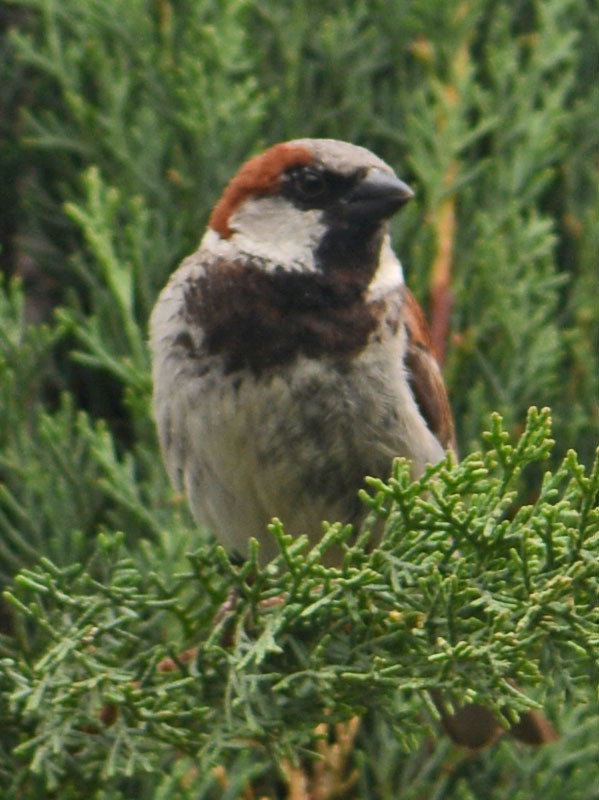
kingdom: Animalia
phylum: Chordata
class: Aves
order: Passeriformes
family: Passeridae
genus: Passer
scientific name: Passer domesticus
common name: House sparrow
